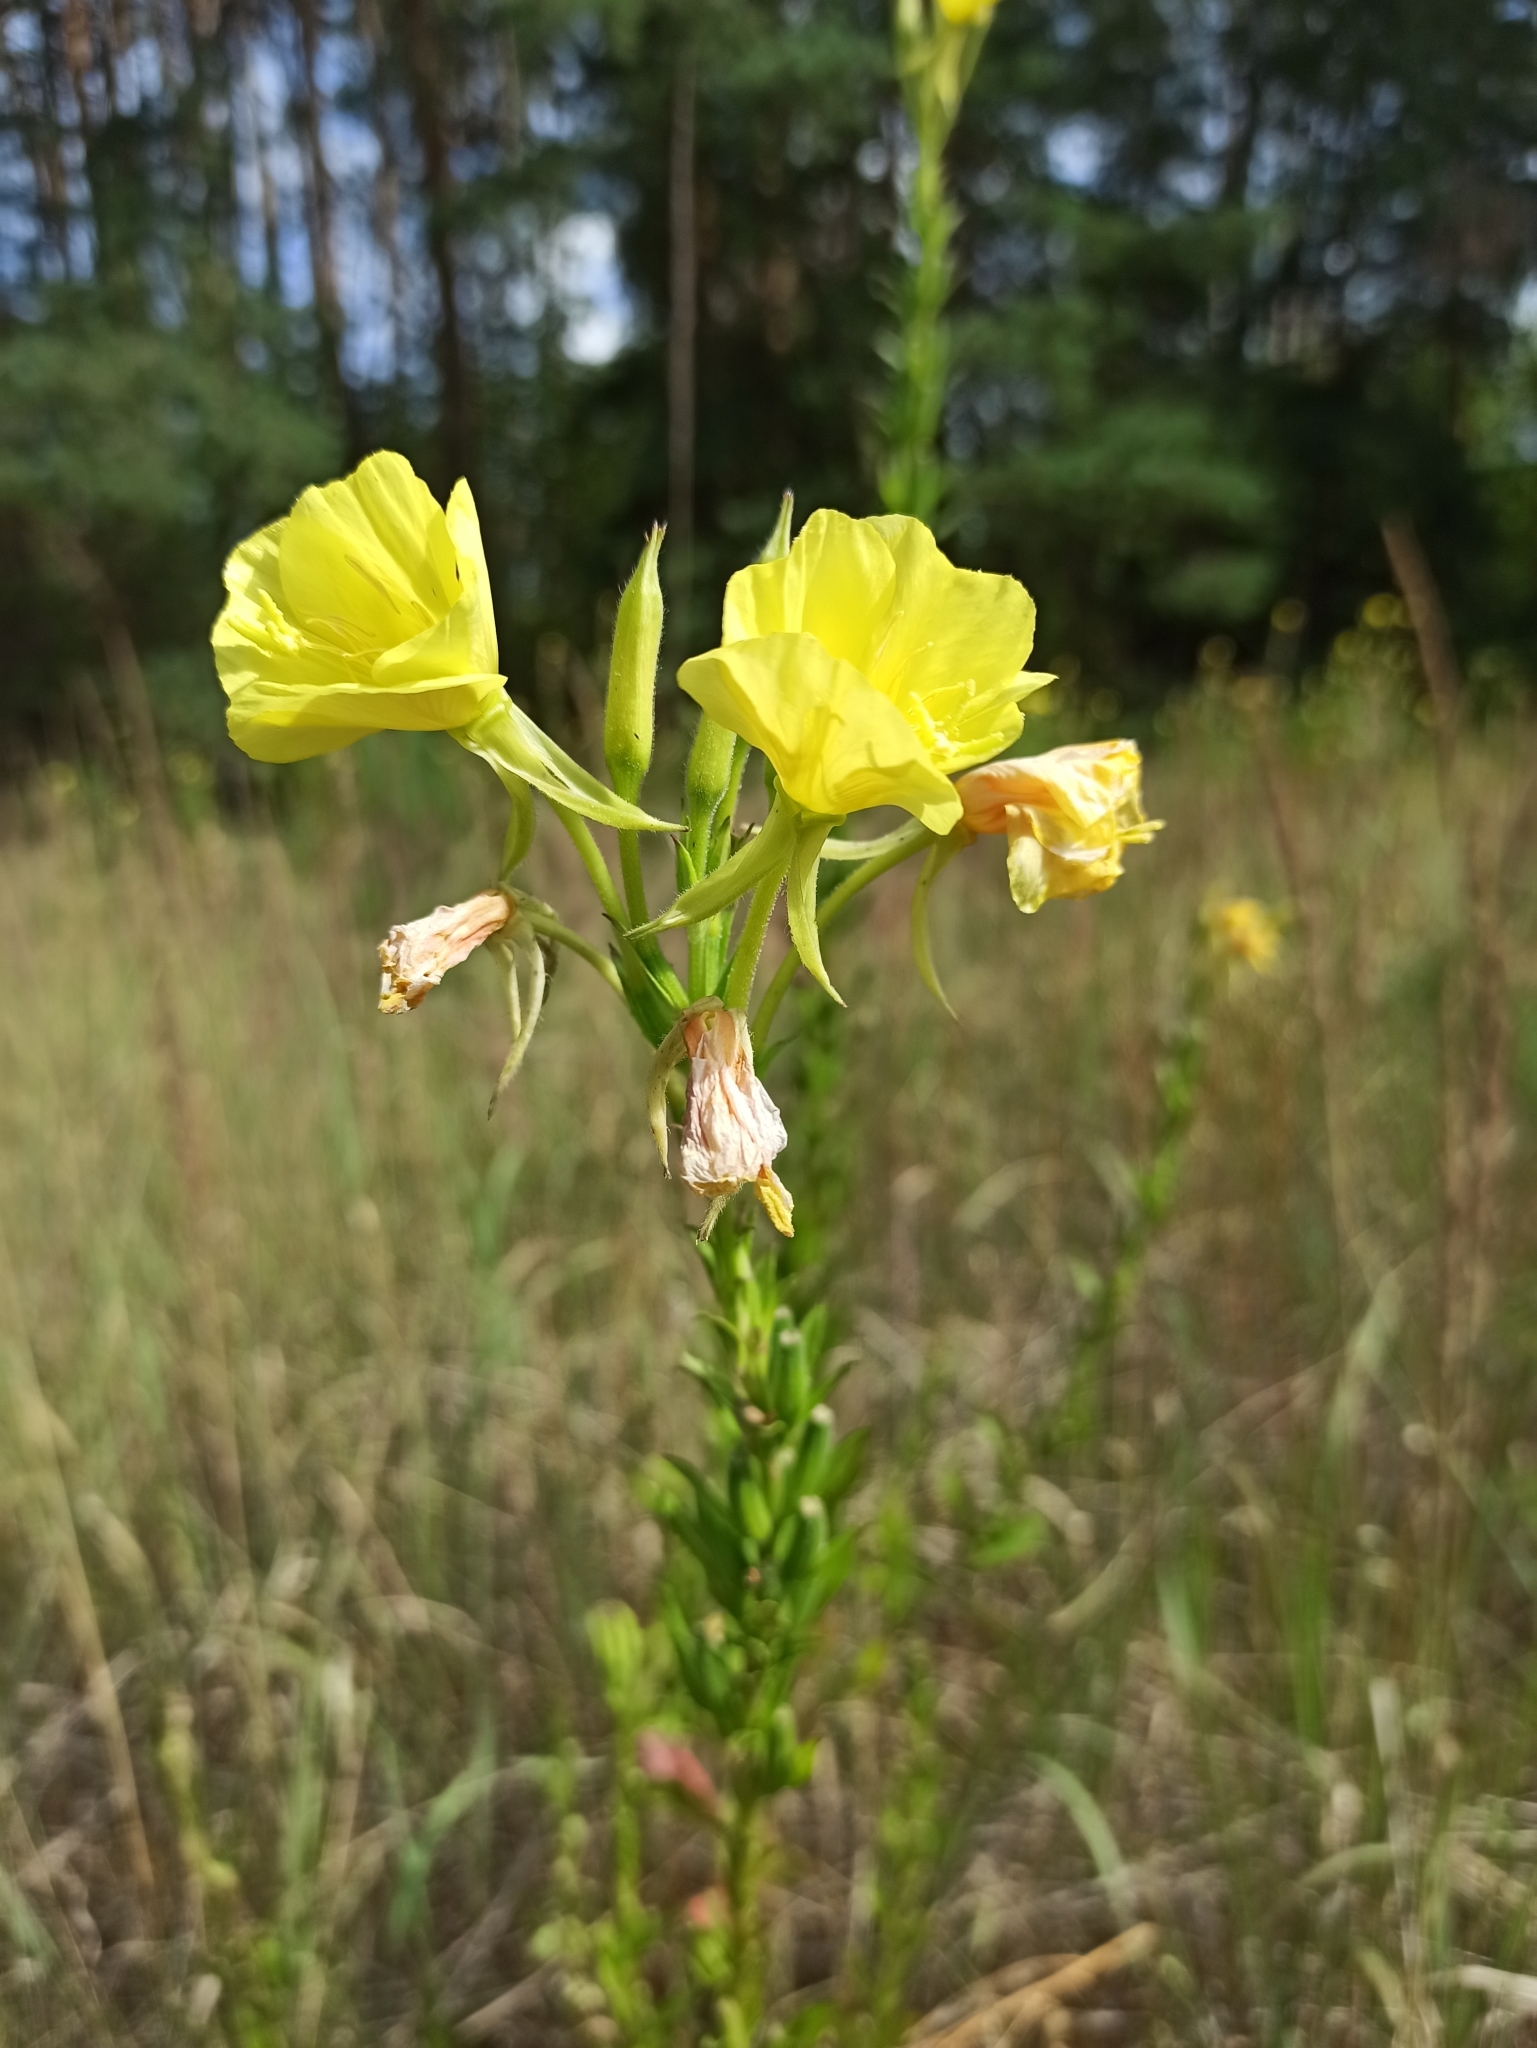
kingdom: Plantae
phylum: Tracheophyta
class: Magnoliopsida
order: Myrtales
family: Onagraceae
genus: Oenothera
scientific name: Oenothera biennis
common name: Common evening-primrose
